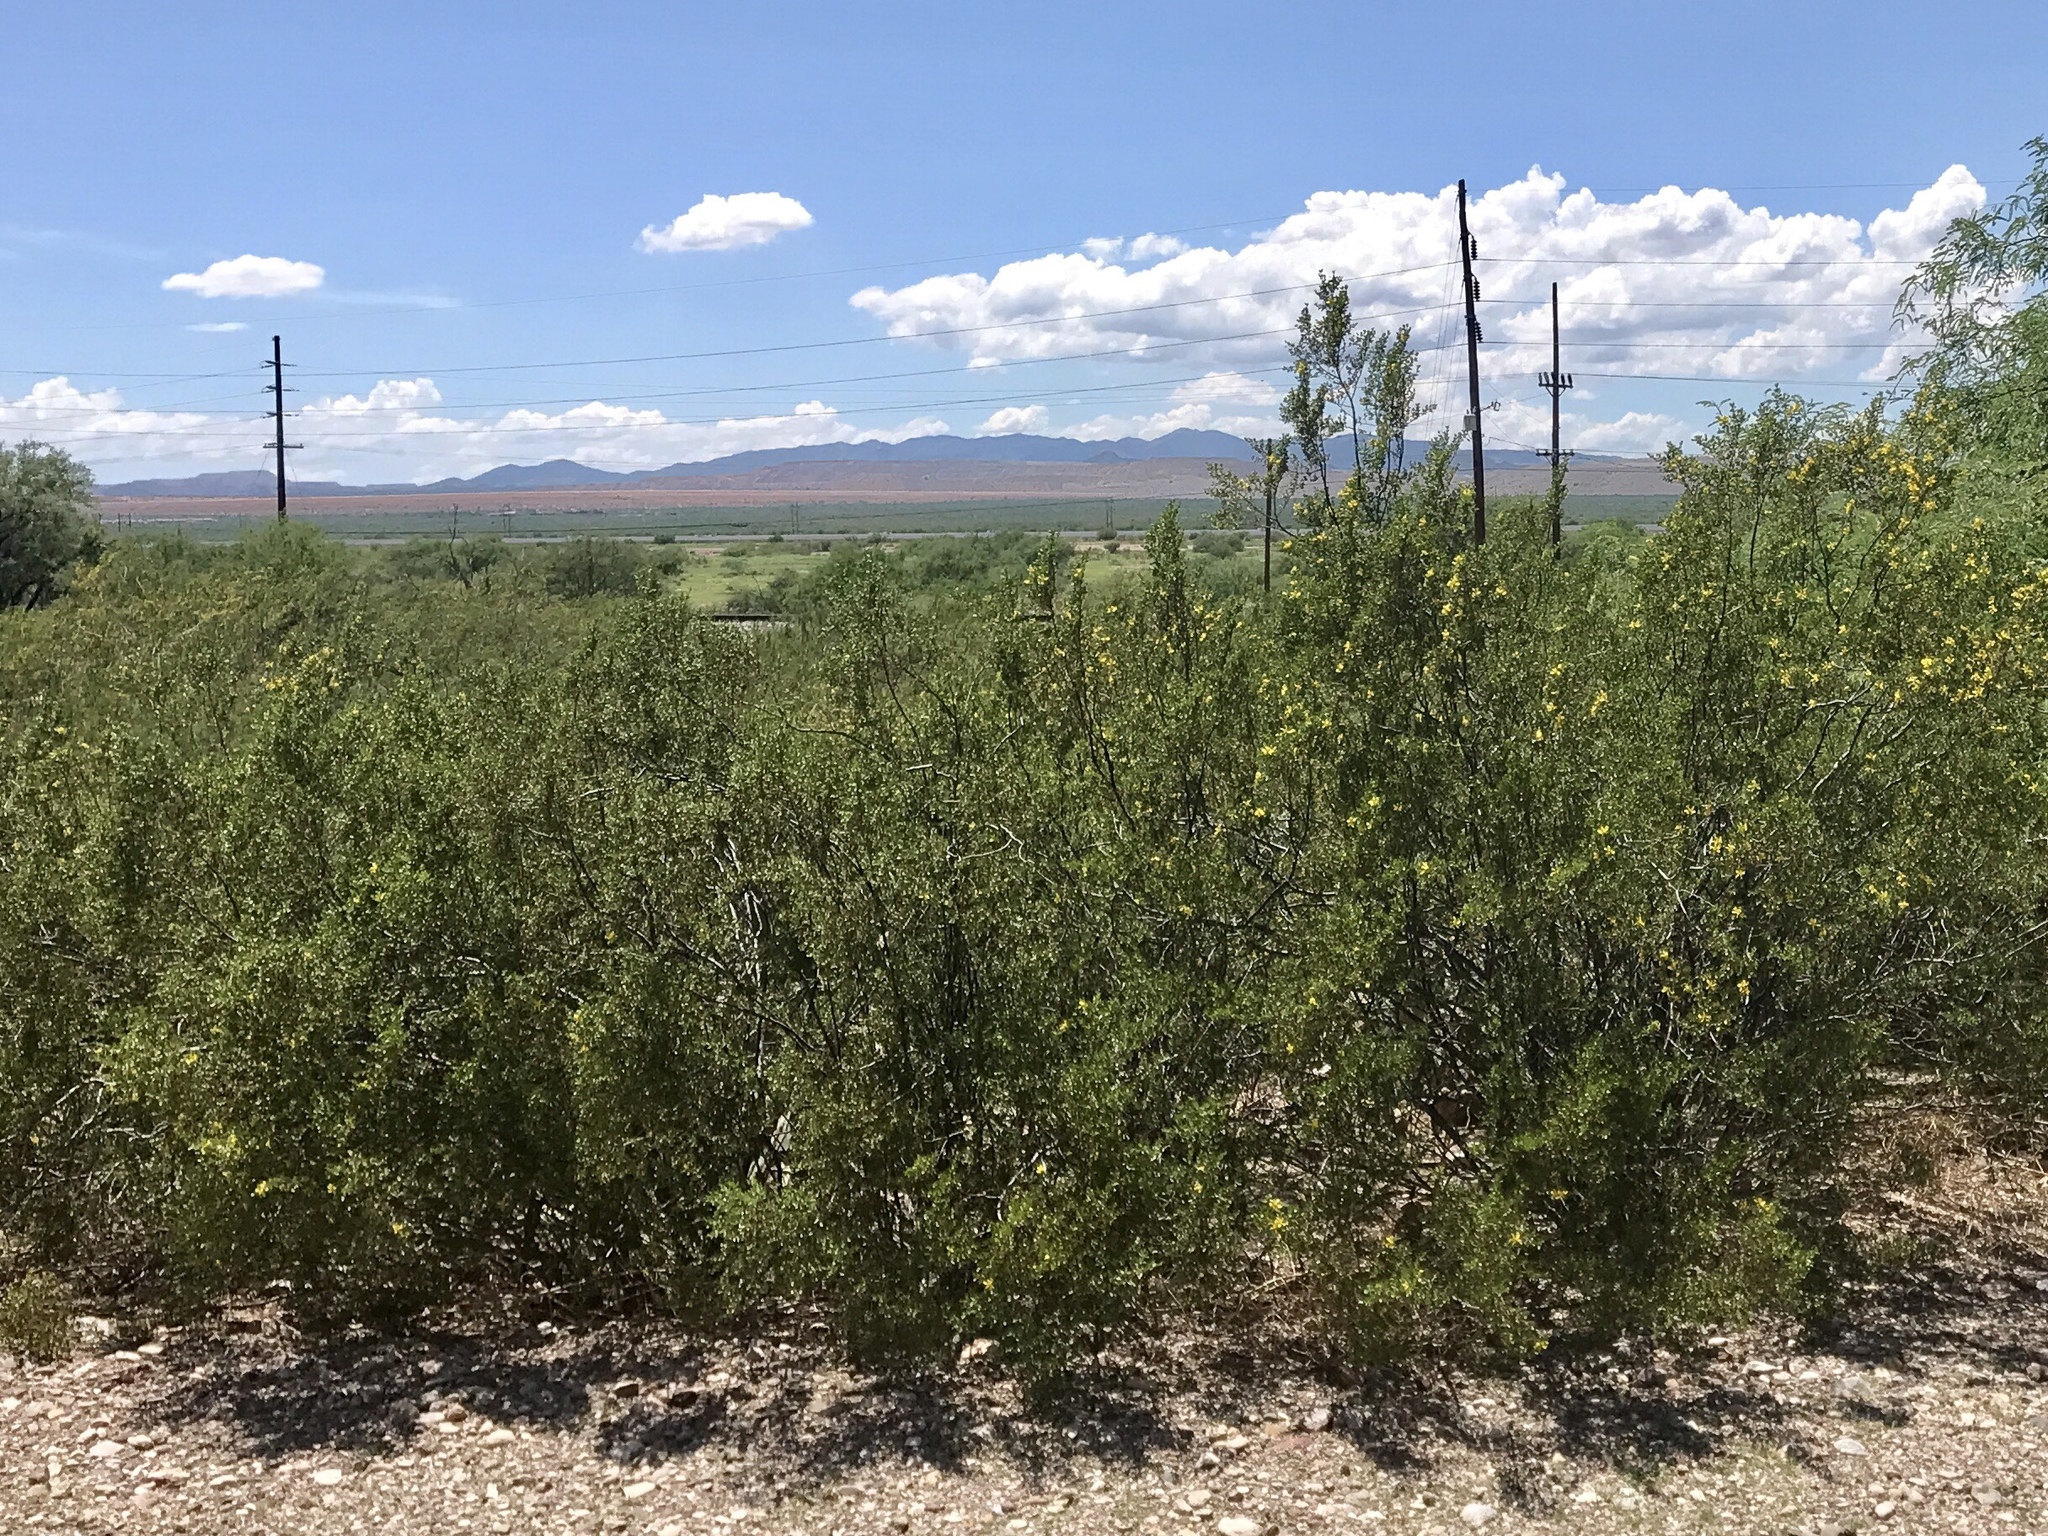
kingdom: Plantae
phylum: Tracheophyta
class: Magnoliopsida
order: Zygophyllales
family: Zygophyllaceae
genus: Larrea
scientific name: Larrea tridentata
